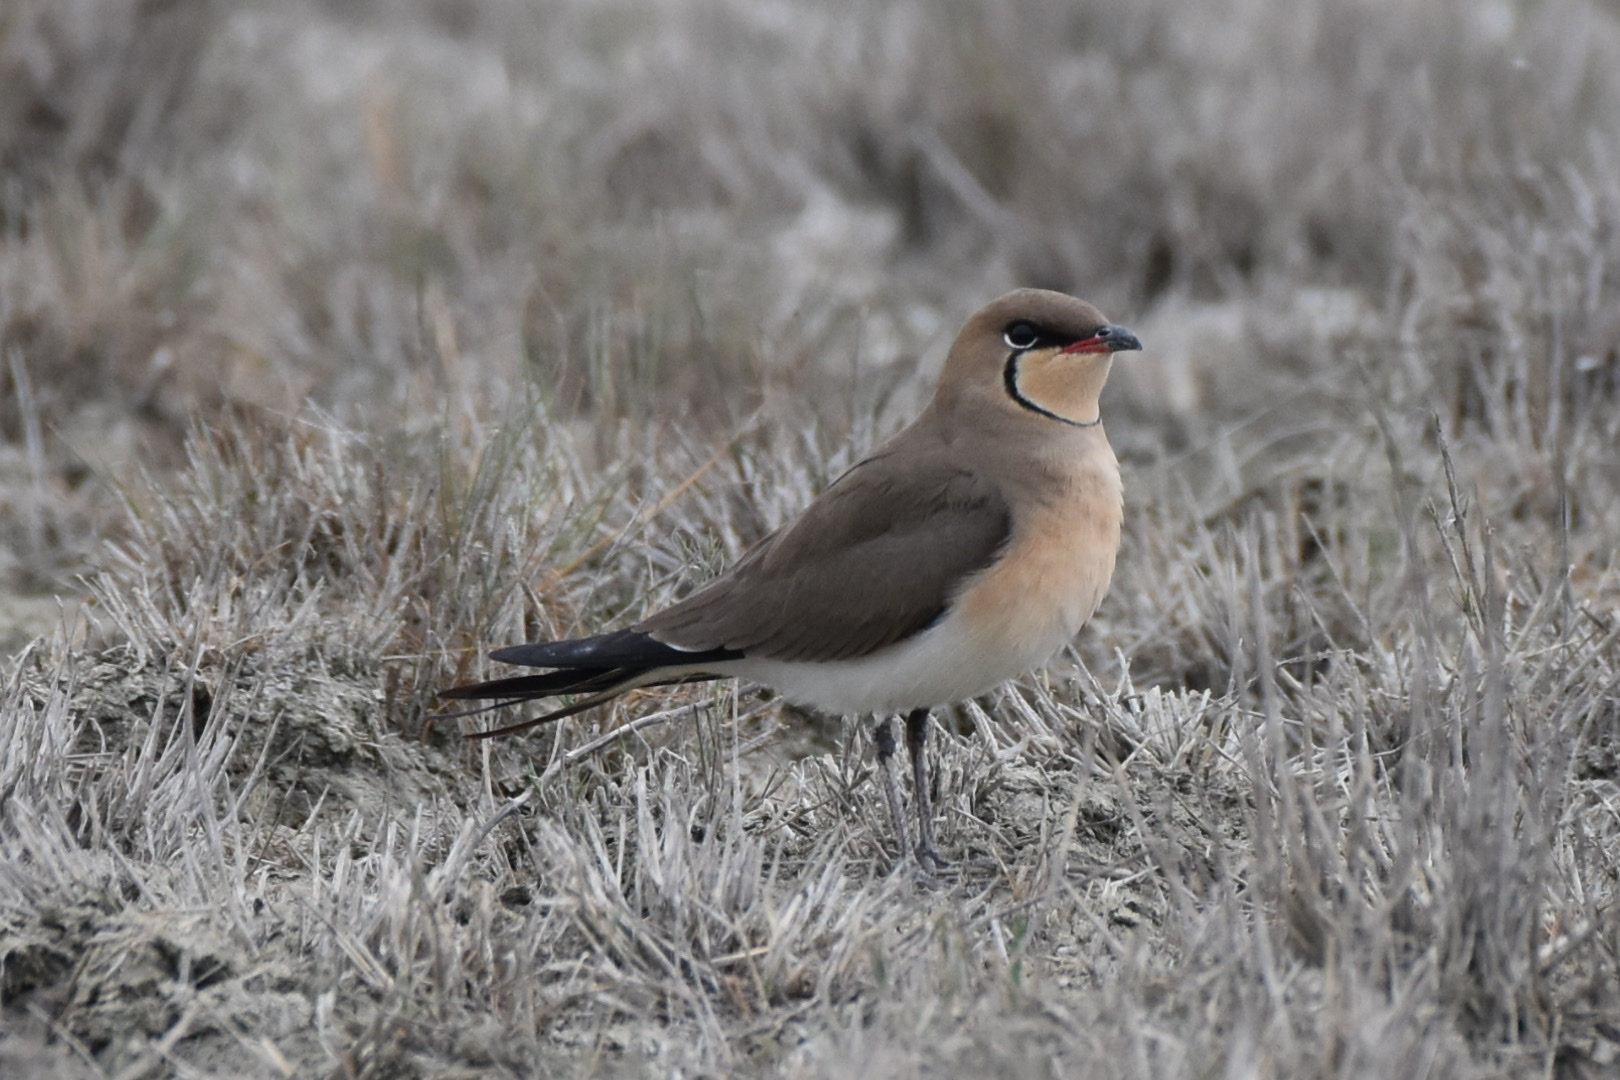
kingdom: Animalia
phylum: Chordata
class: Aves
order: Charadriiformes
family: Glareolidae
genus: Glareola
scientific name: Glareola pratincola
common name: Collared pratincole
